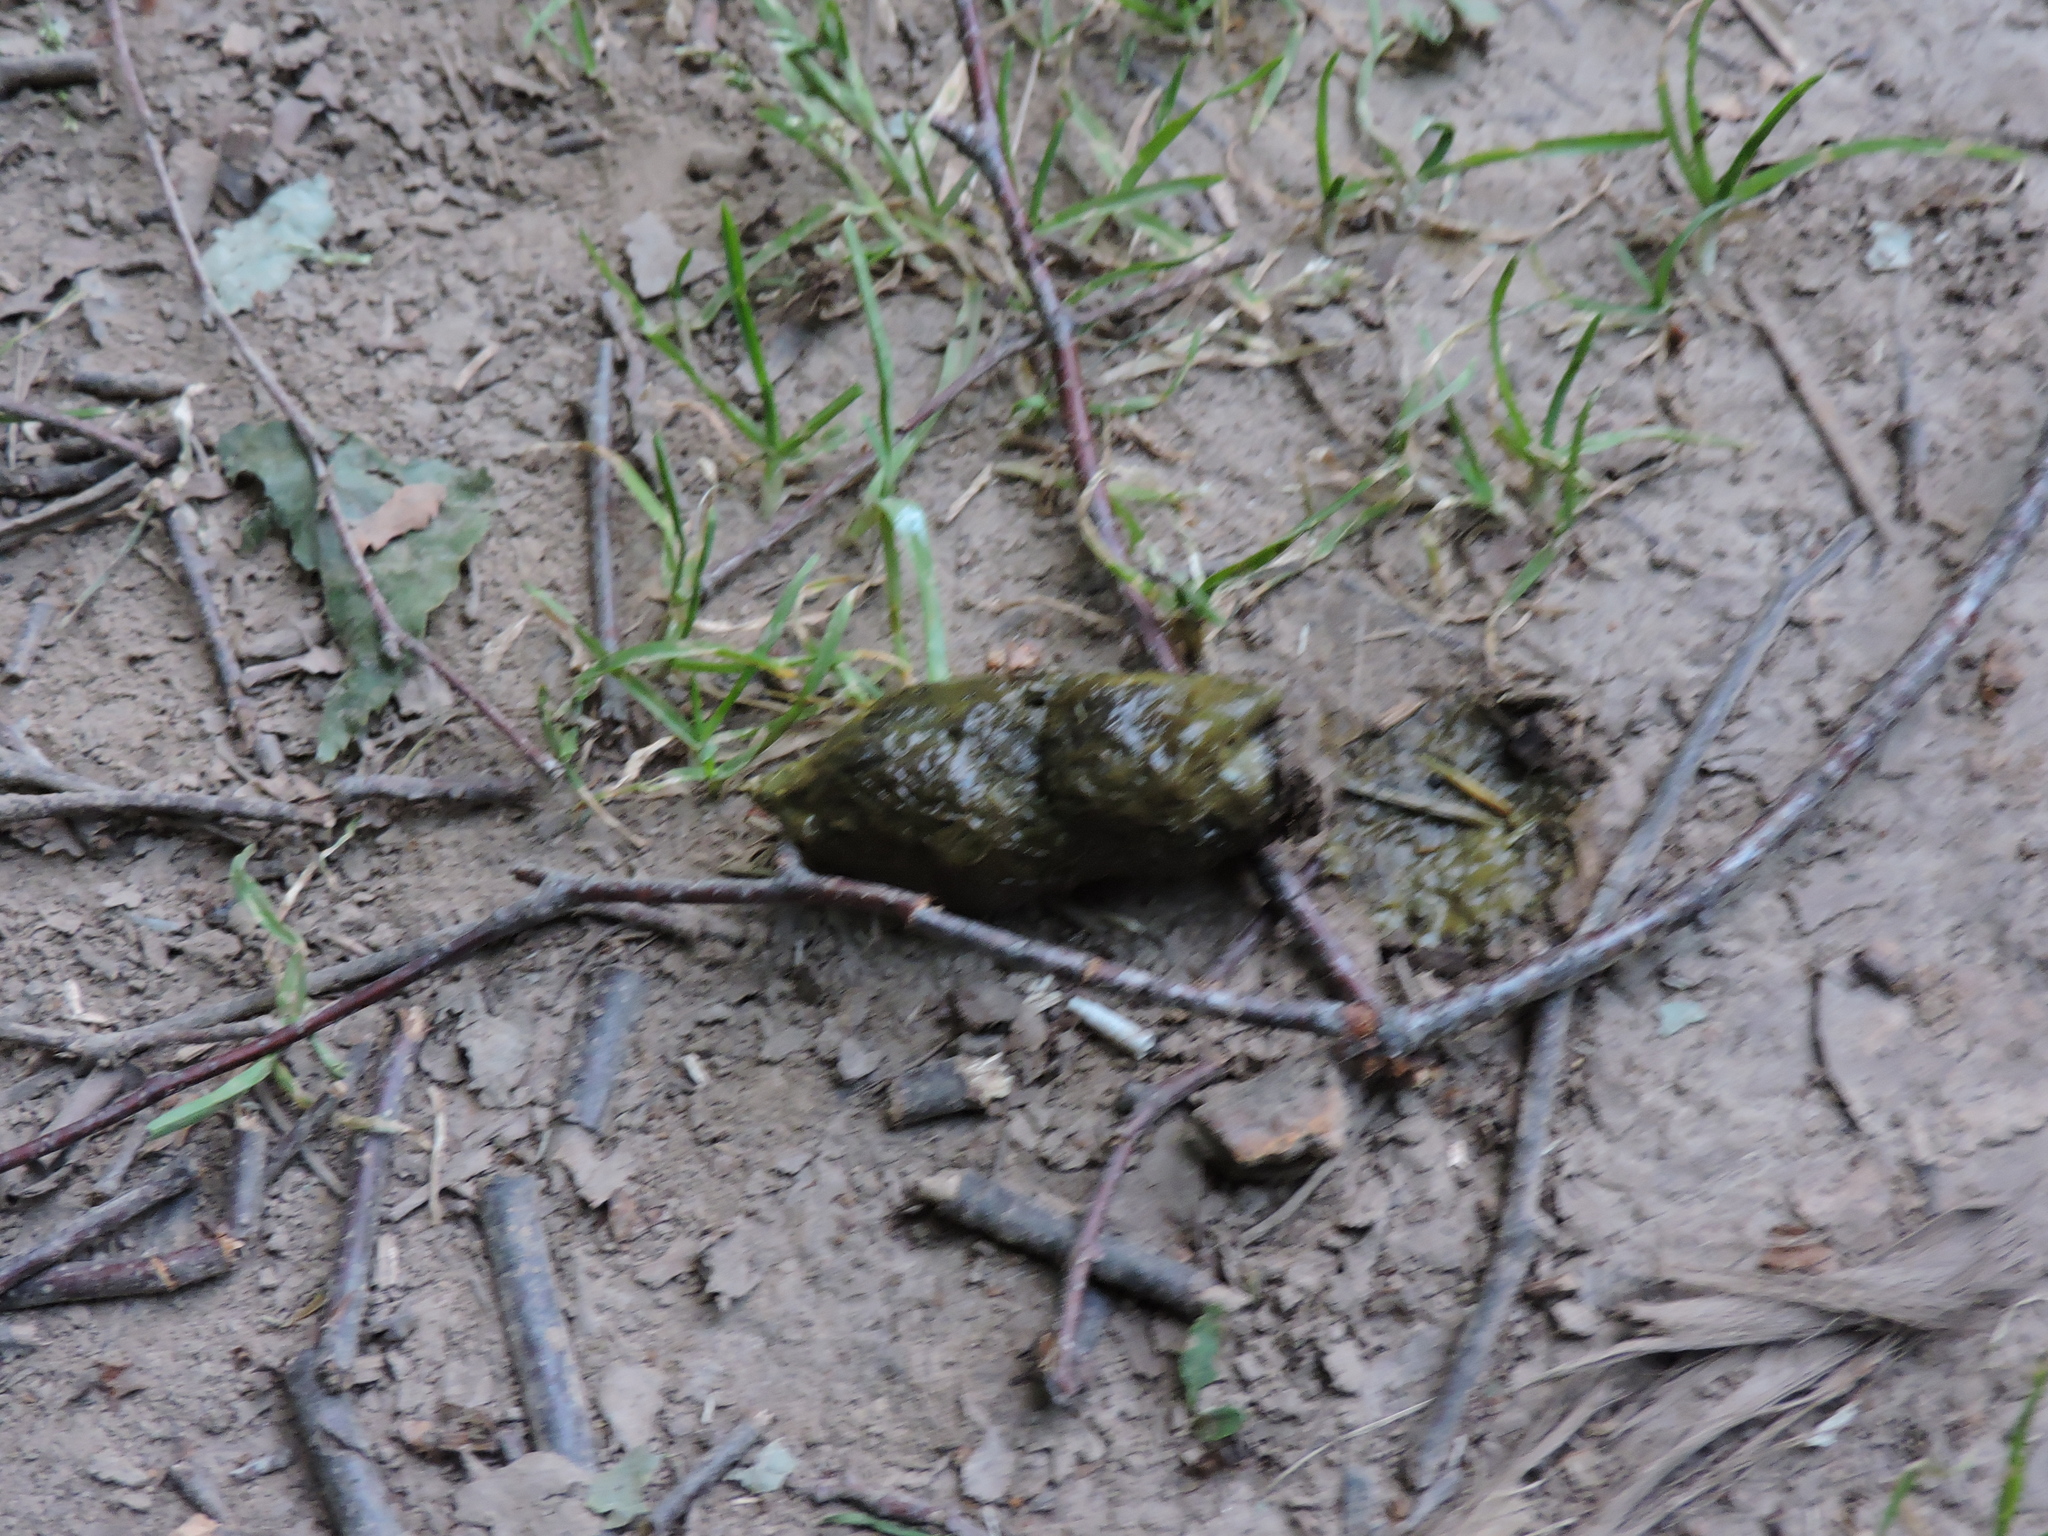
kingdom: Animalia
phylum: Chordata
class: Mammalia
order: Carnivora
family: Canidae
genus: Vulpes
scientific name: Vulpes vulpes
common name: Red fox
